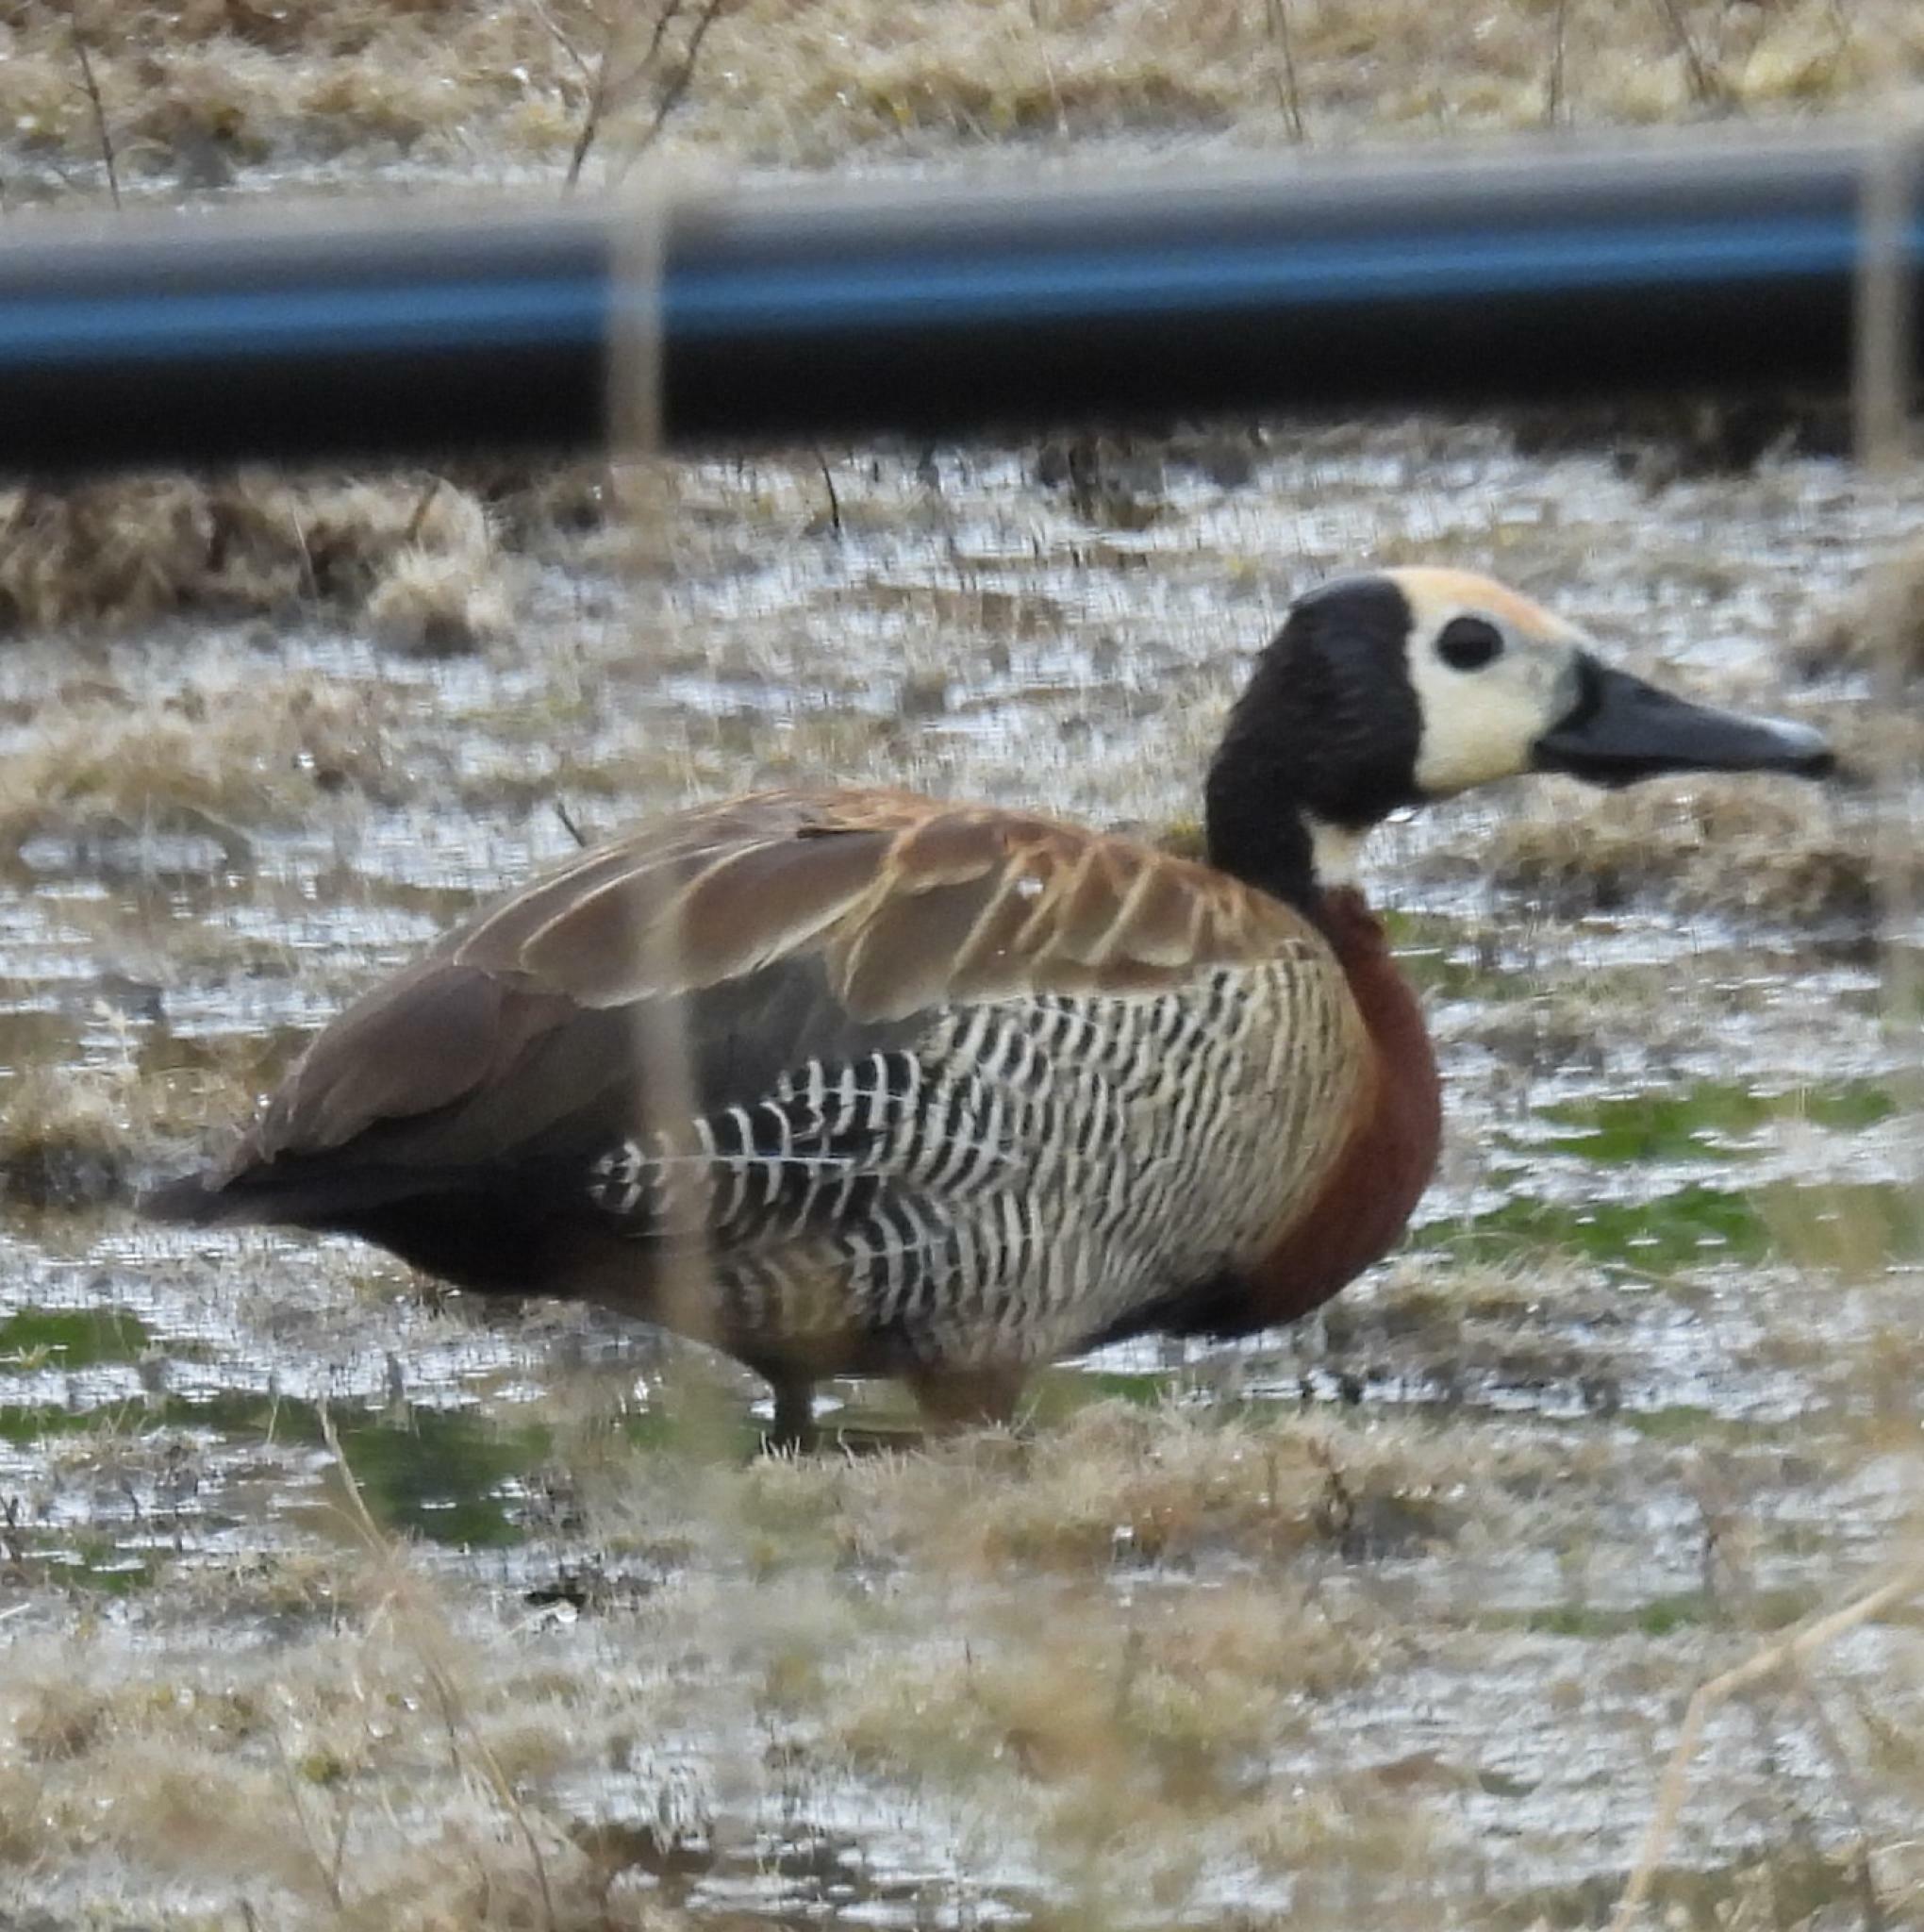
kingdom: Animalia
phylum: Chordata
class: Aves
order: Anseriformes
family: Anatidae
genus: Dendrocygna
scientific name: Dendrocygna viduata
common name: White-faced whistling duck
